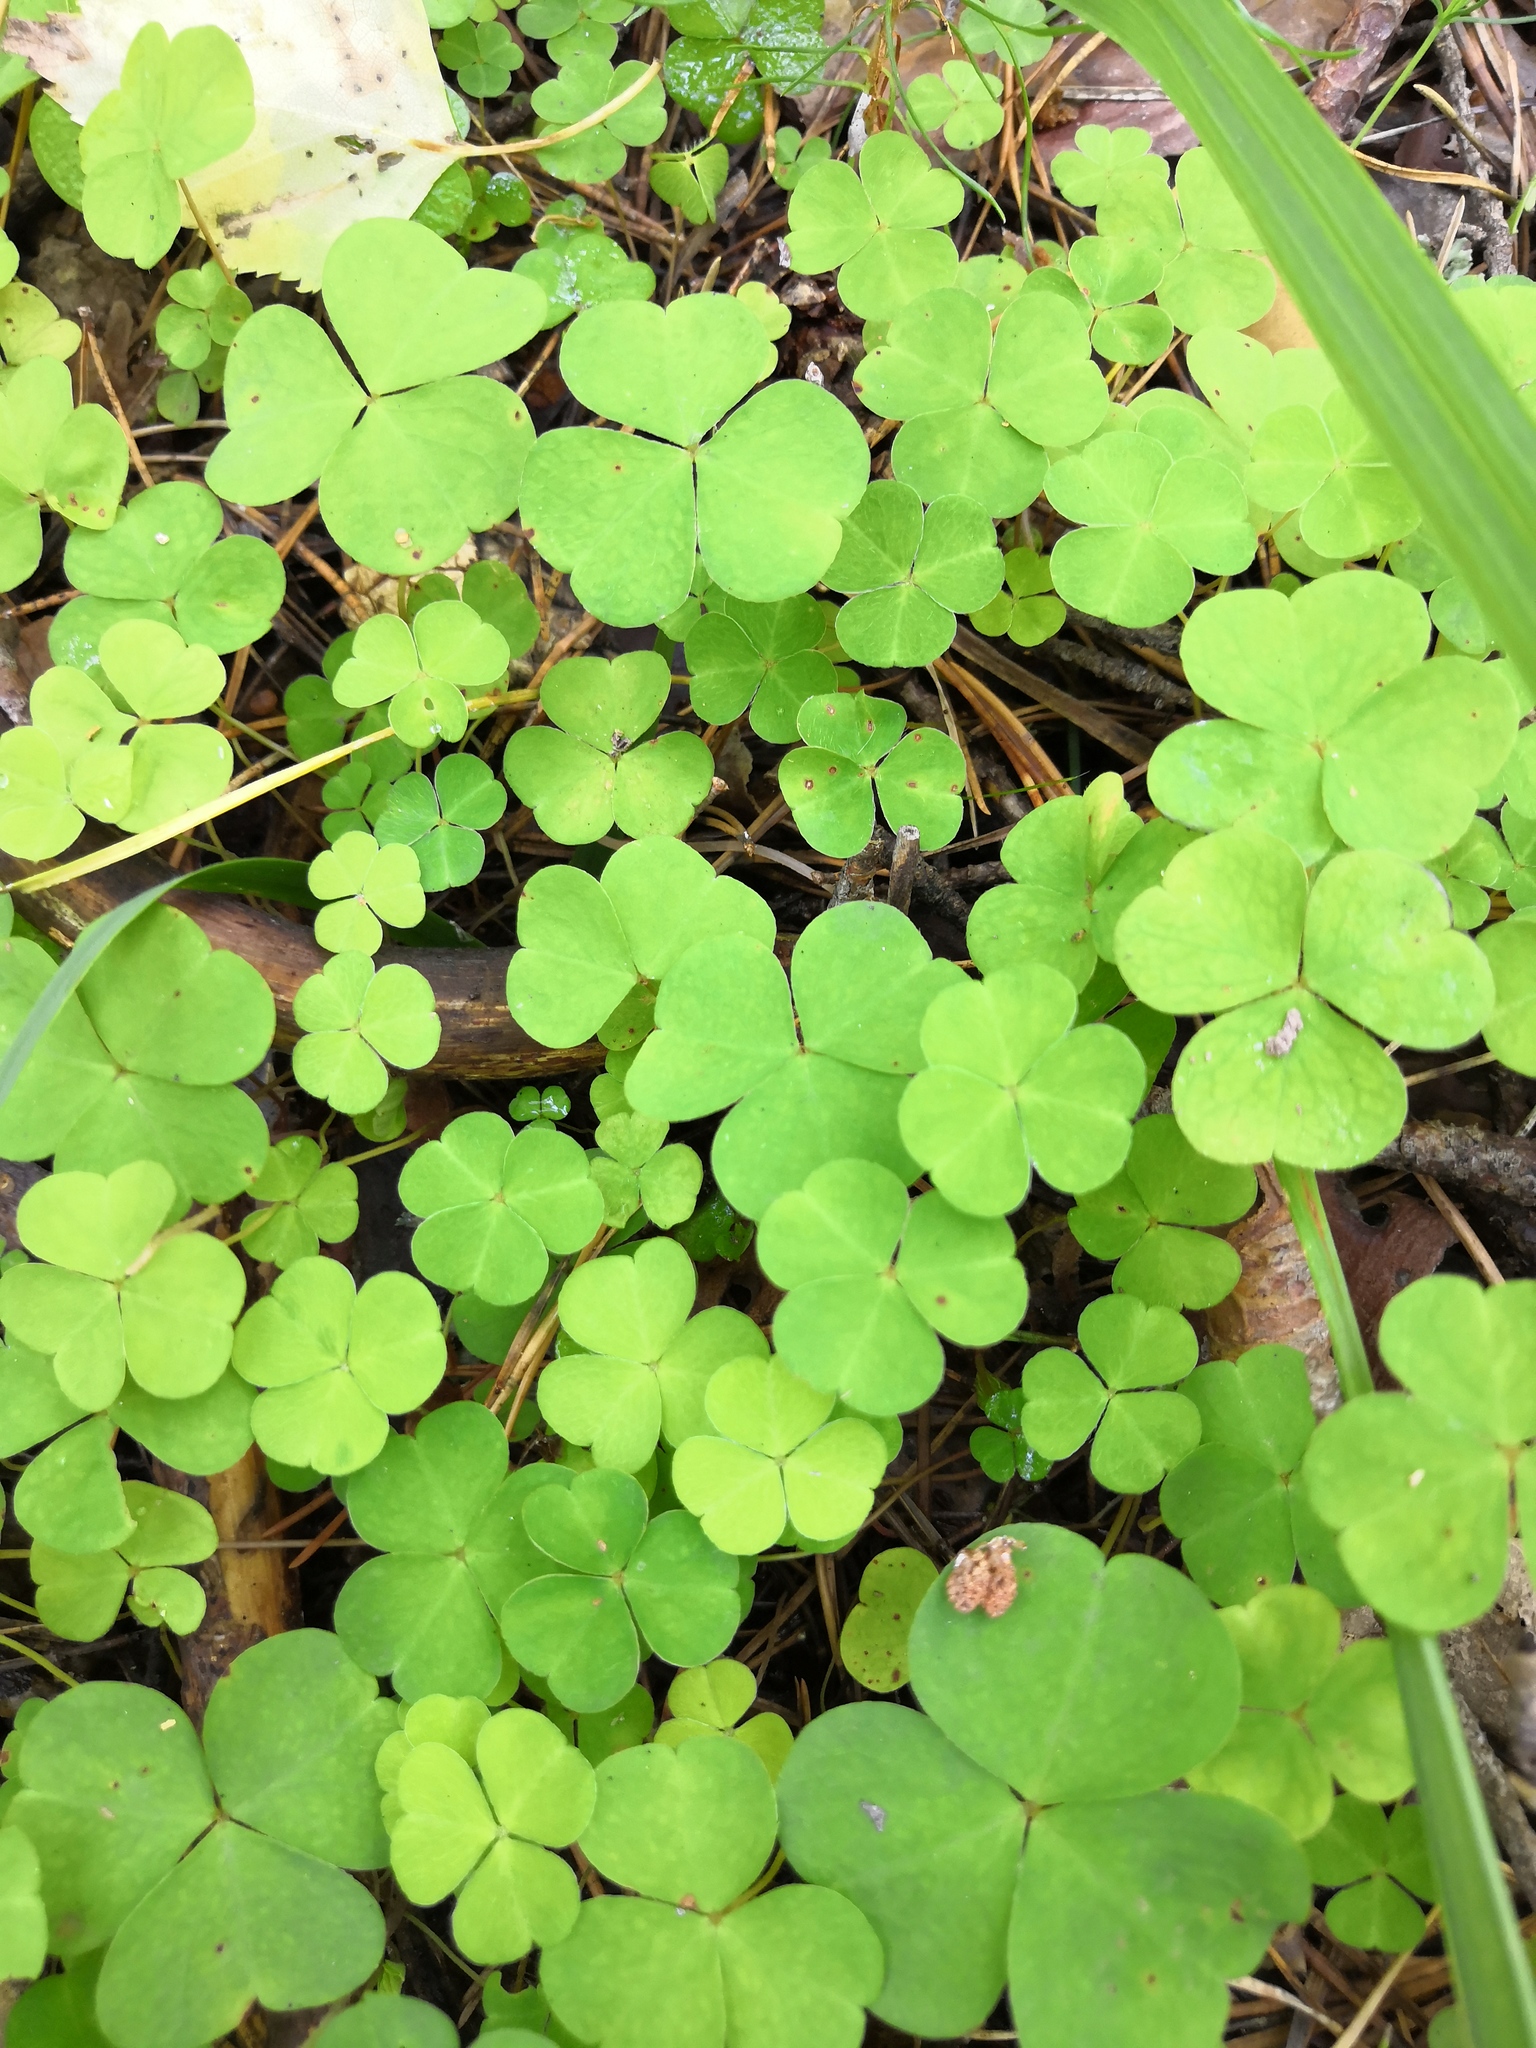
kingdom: Plantae
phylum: Tracheophyta
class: Magnoliopsida
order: Oxalidales
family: Oxalidaceae
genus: Oxalis
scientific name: Oxalis acetosella
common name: Wood-sorrel
